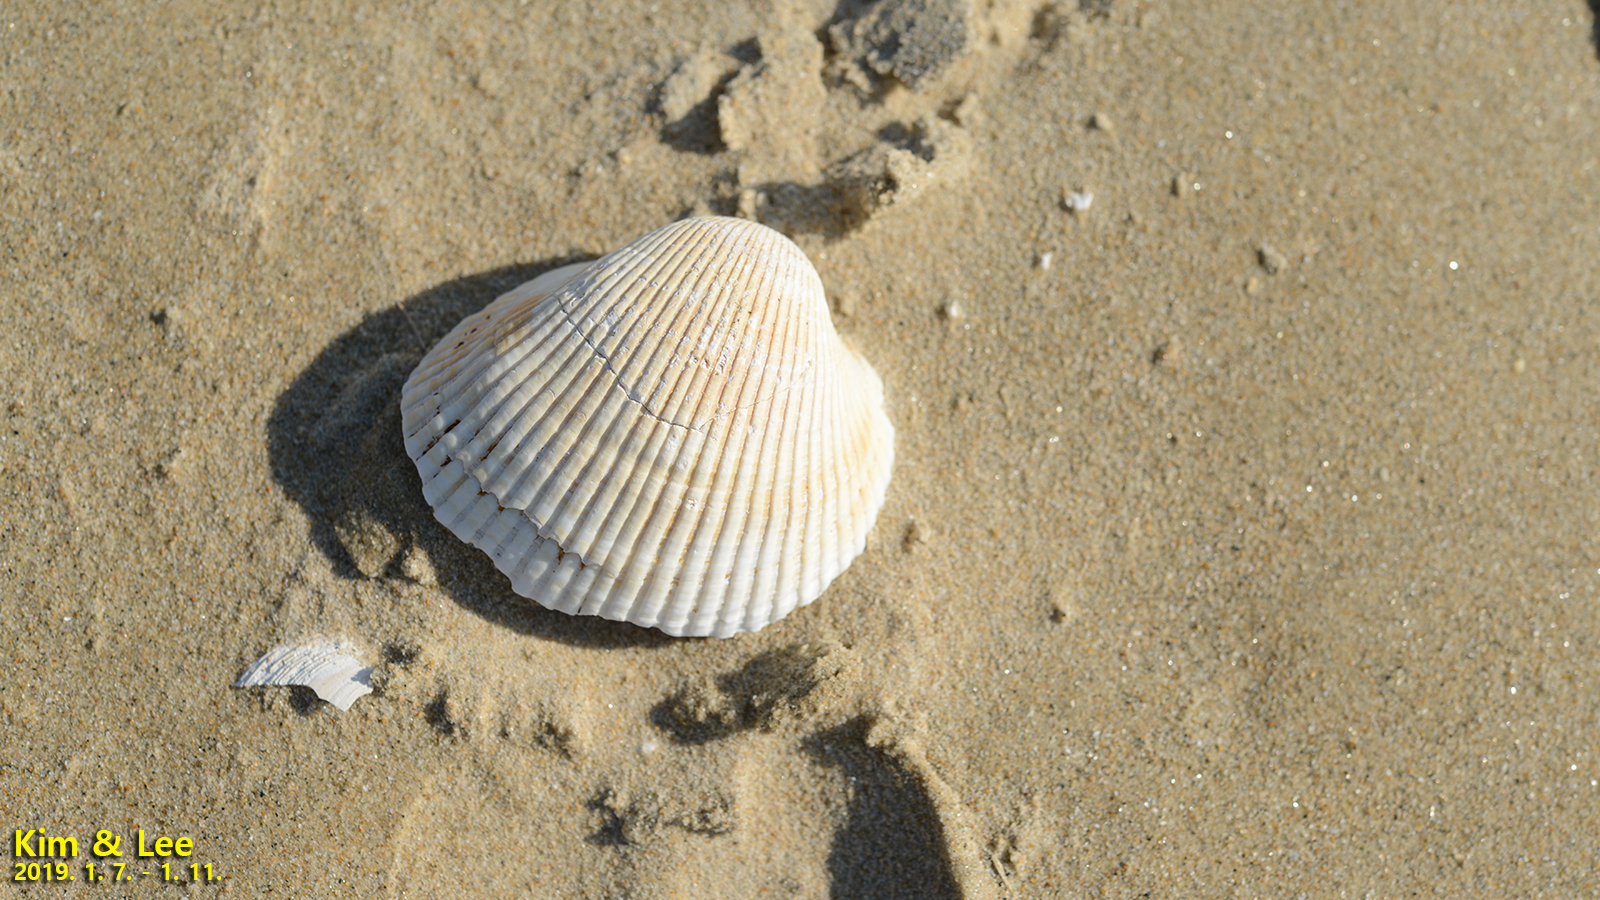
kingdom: Animalia
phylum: Mollusca
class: Bivalvia
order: Arcida
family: Arcidae
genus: Anadara
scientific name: Anadara broughtonii
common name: Blood clam
